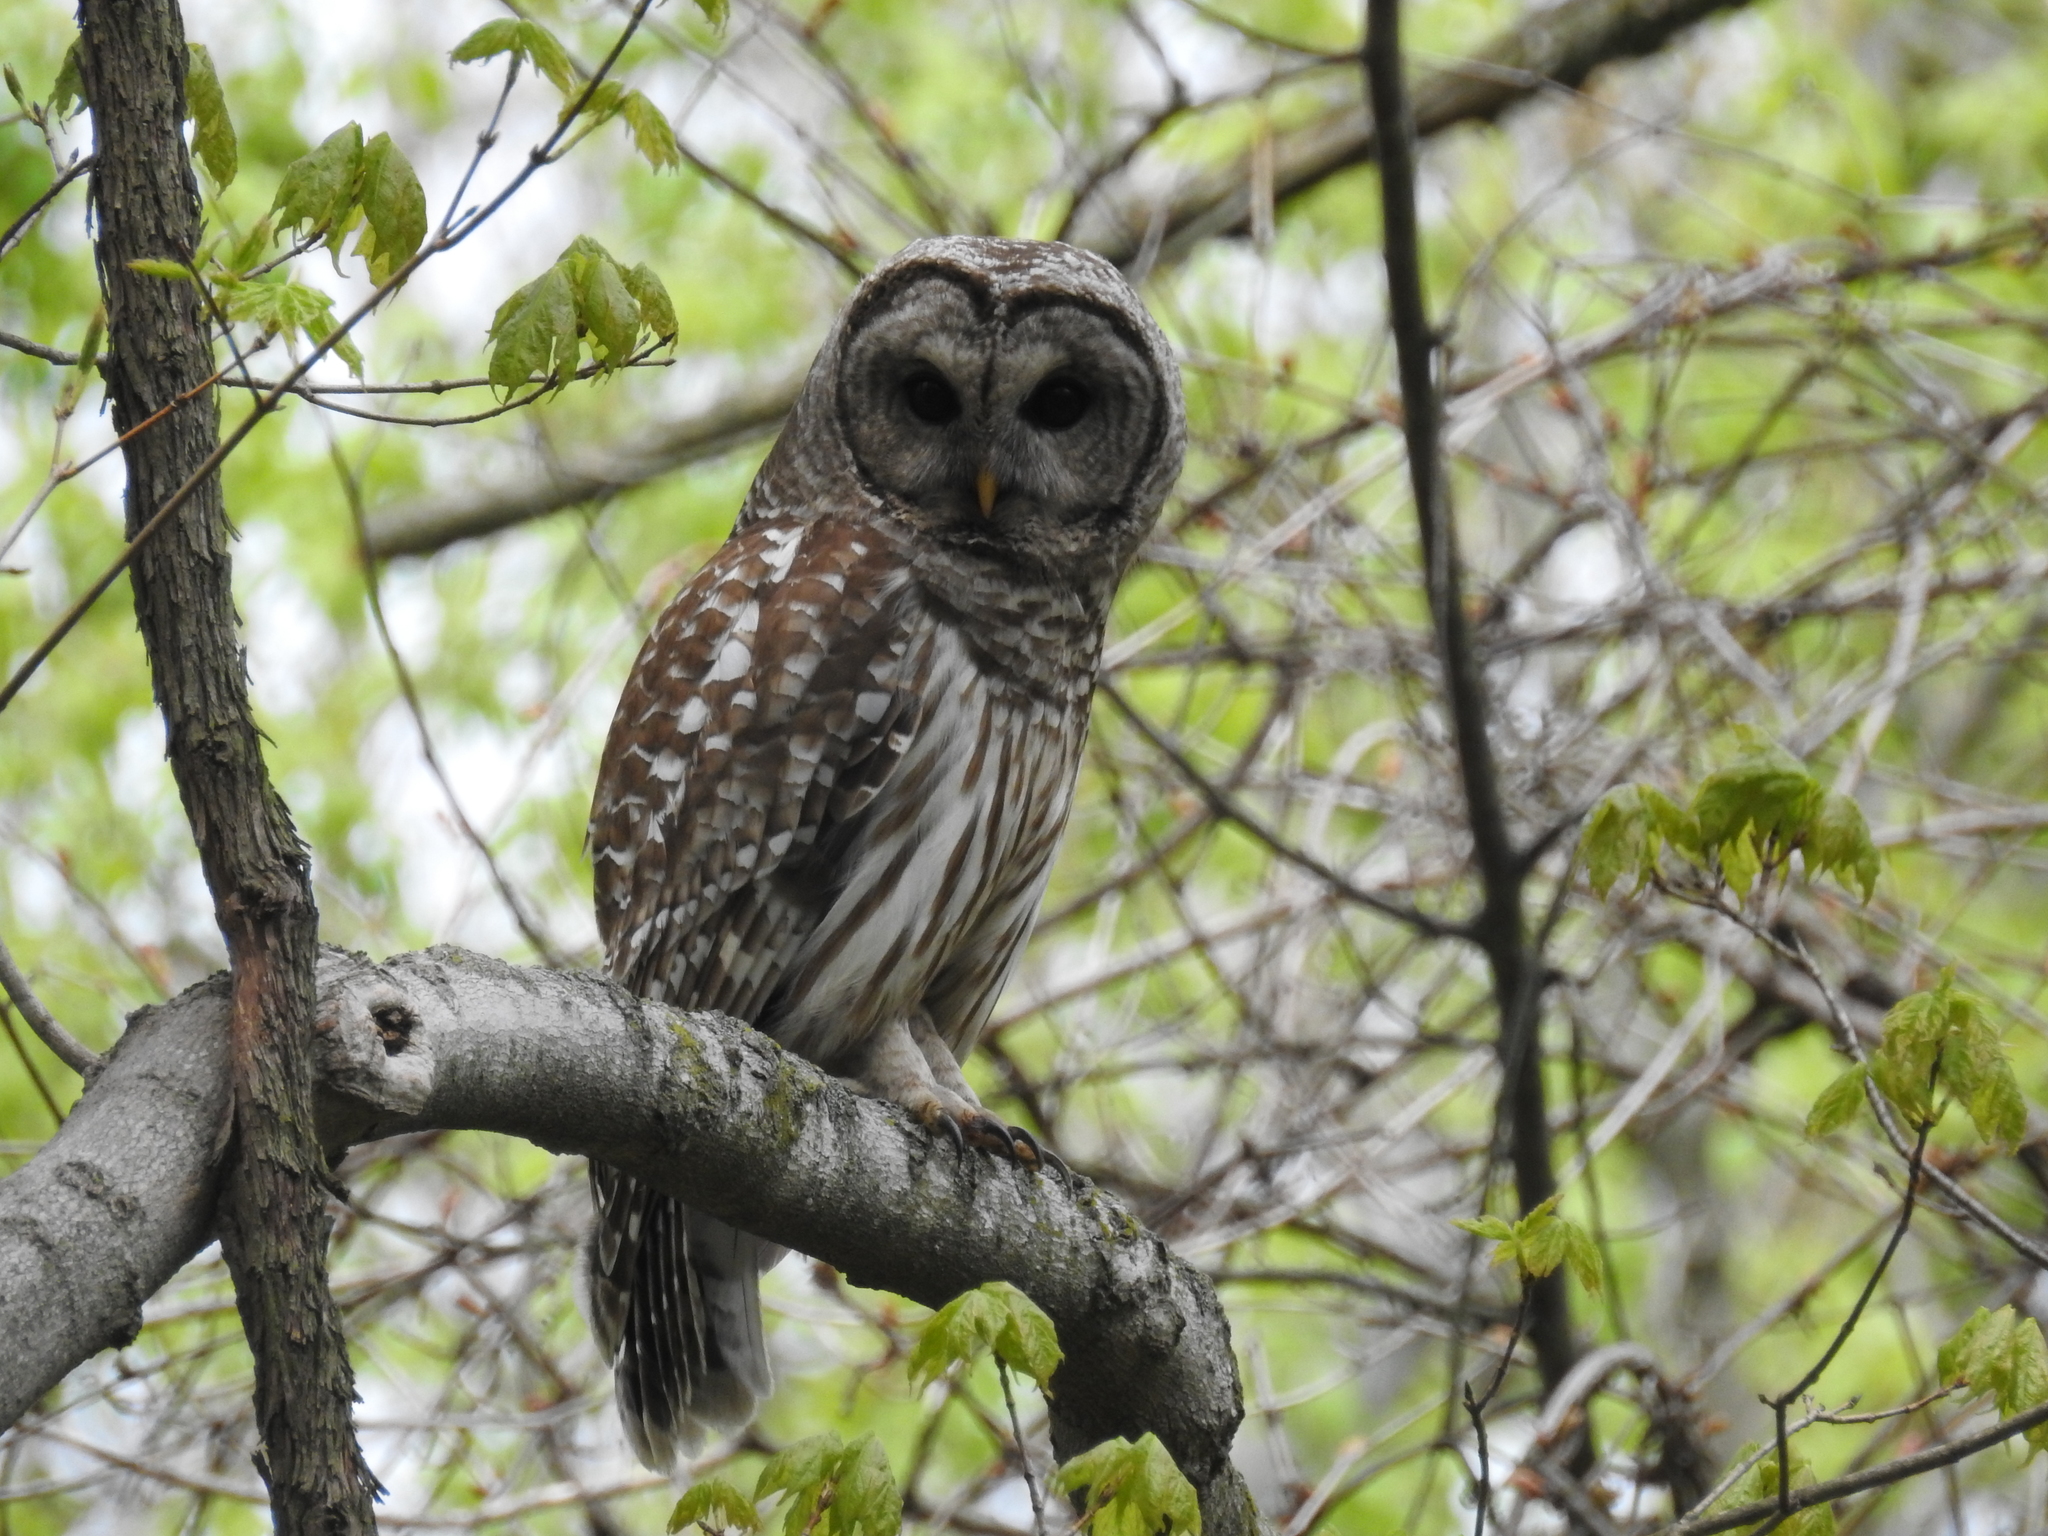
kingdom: Animalia
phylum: Chordata
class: Aves
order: Strigiformes
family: Strigidae
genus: Strix
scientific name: Strix varia
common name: Barred owl
